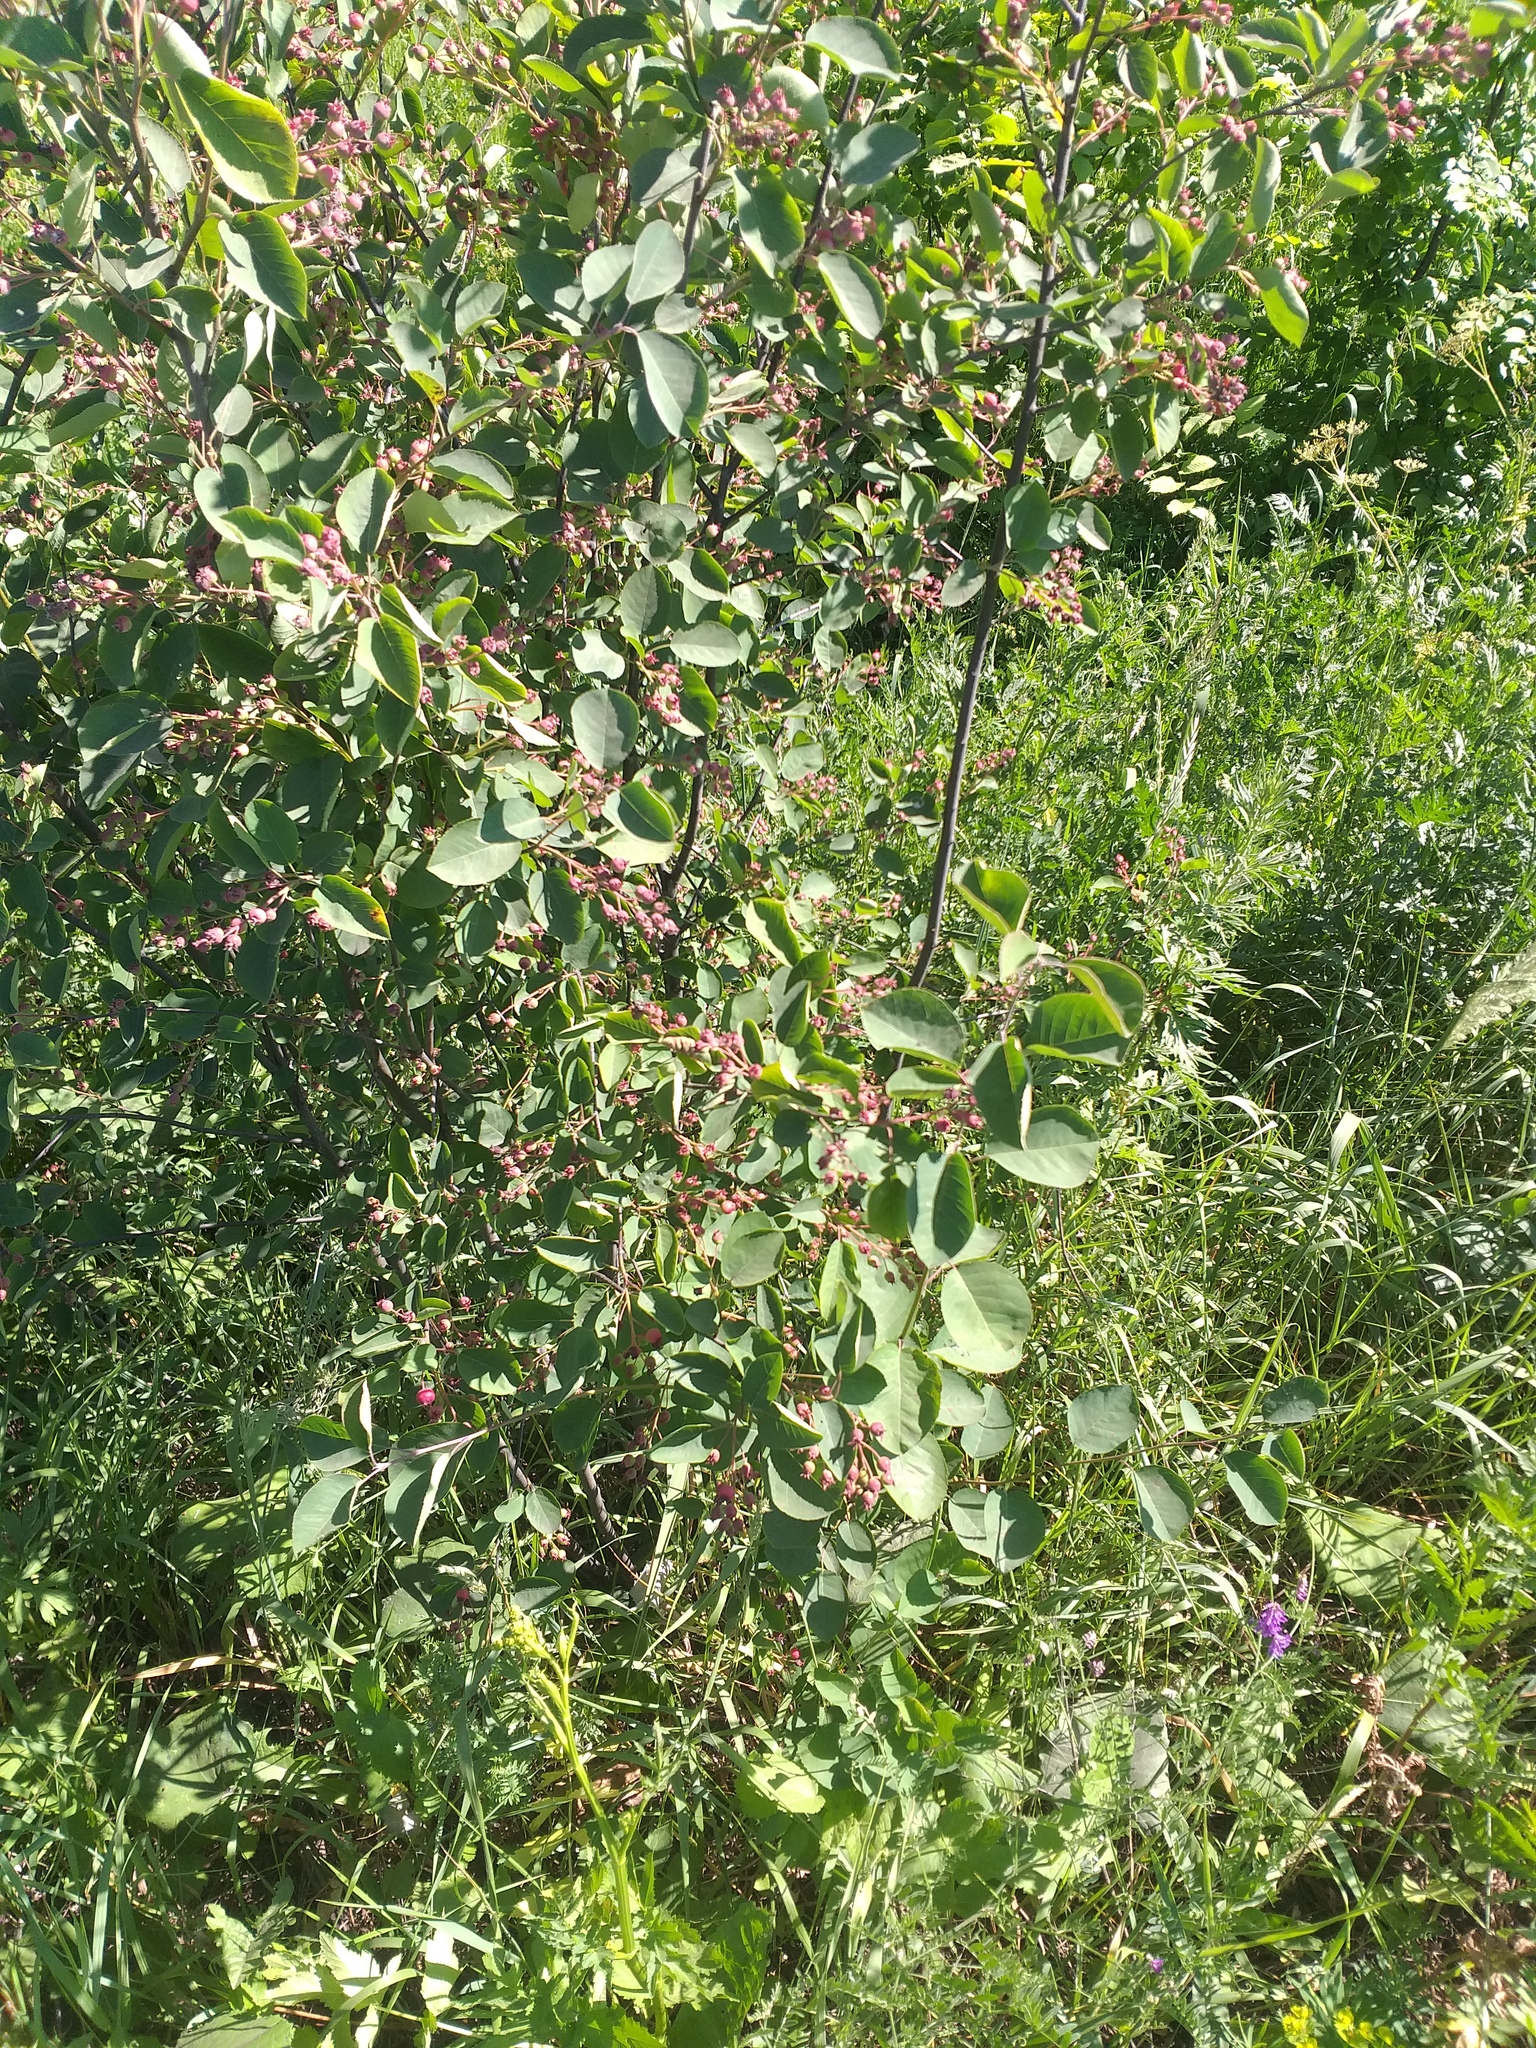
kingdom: Plantae
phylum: Tracheophyta
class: Magnoliopsida
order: Rosales
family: Rosaceae
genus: Amelanchier
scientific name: Amelanchier
